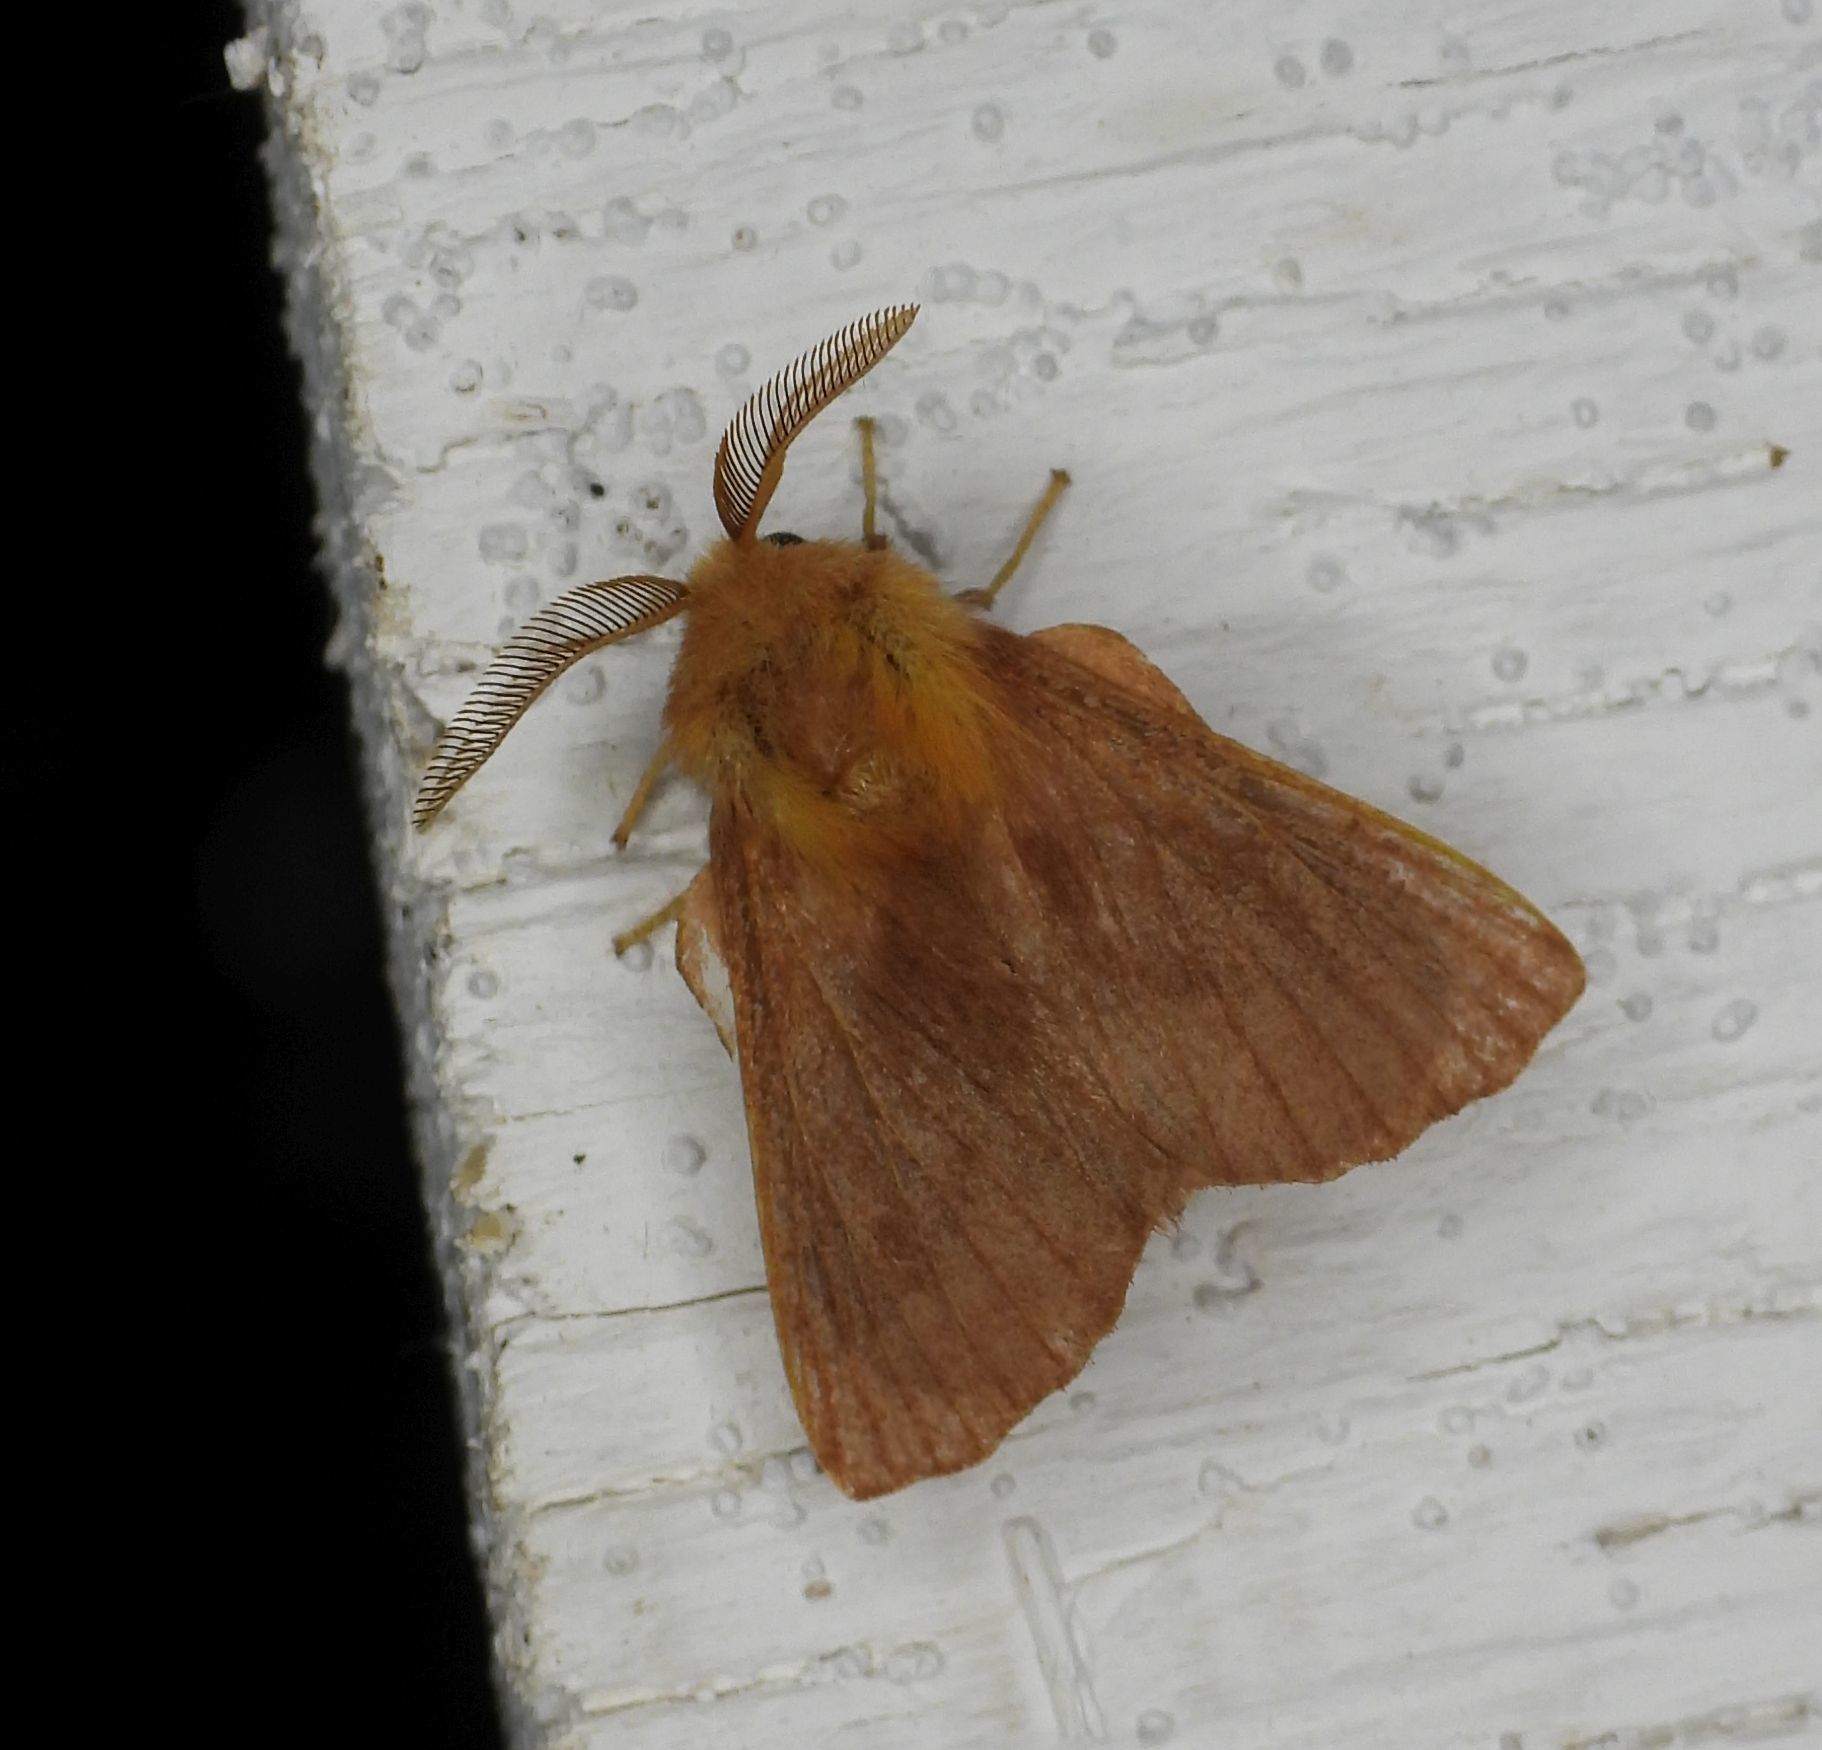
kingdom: Animalia
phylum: Arthropoda
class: Insecta
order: Lepidoptera
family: Lasiocampidae
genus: Malacosoma
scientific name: Malacosoma disstria
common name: Forest tent caterpillar
